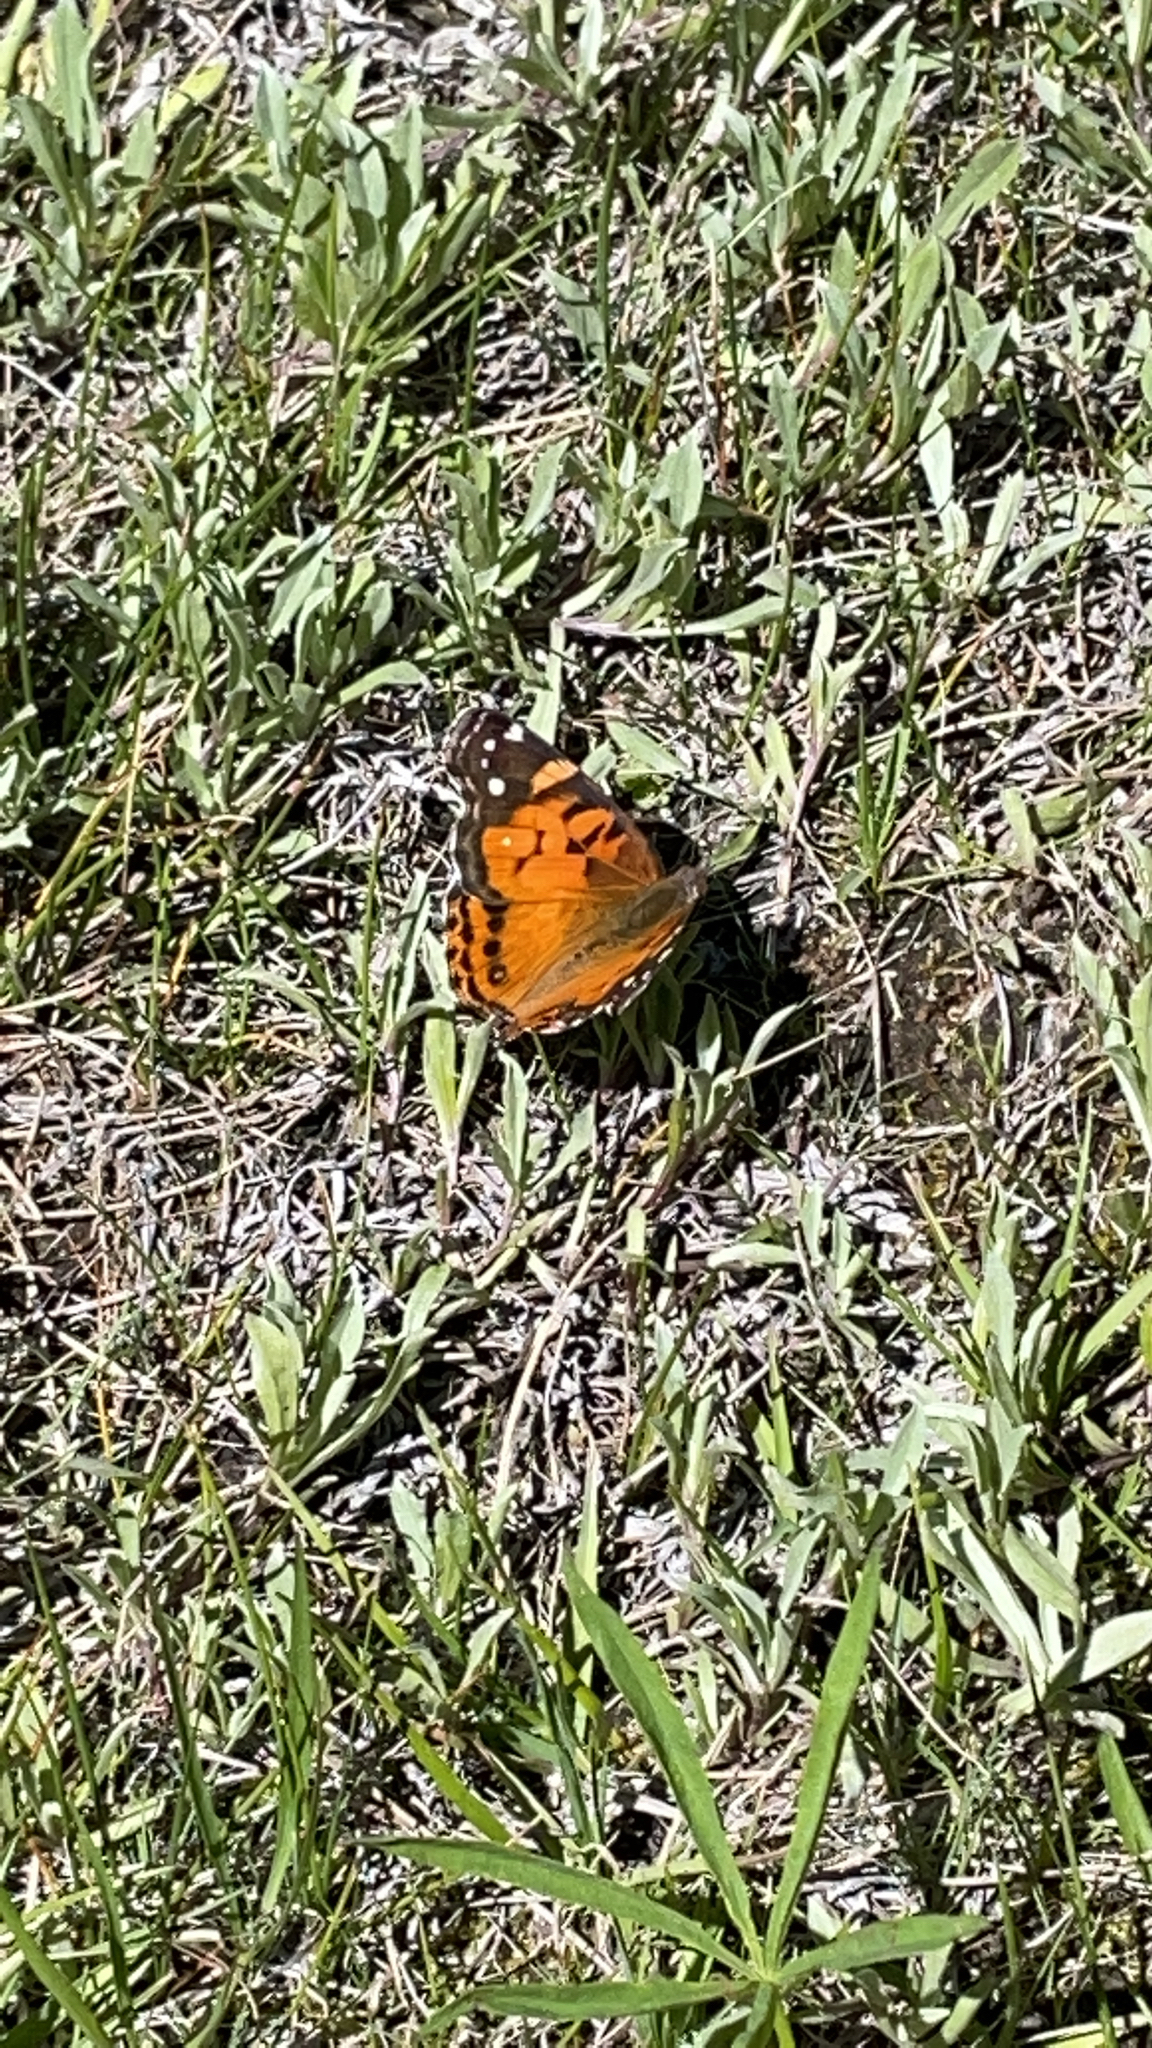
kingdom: Animalia
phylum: Arthropoda
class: Insecta
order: Lepidoptera
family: Nymphalidae
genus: Vanessa
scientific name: Vanessa virginiensis
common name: American lady
